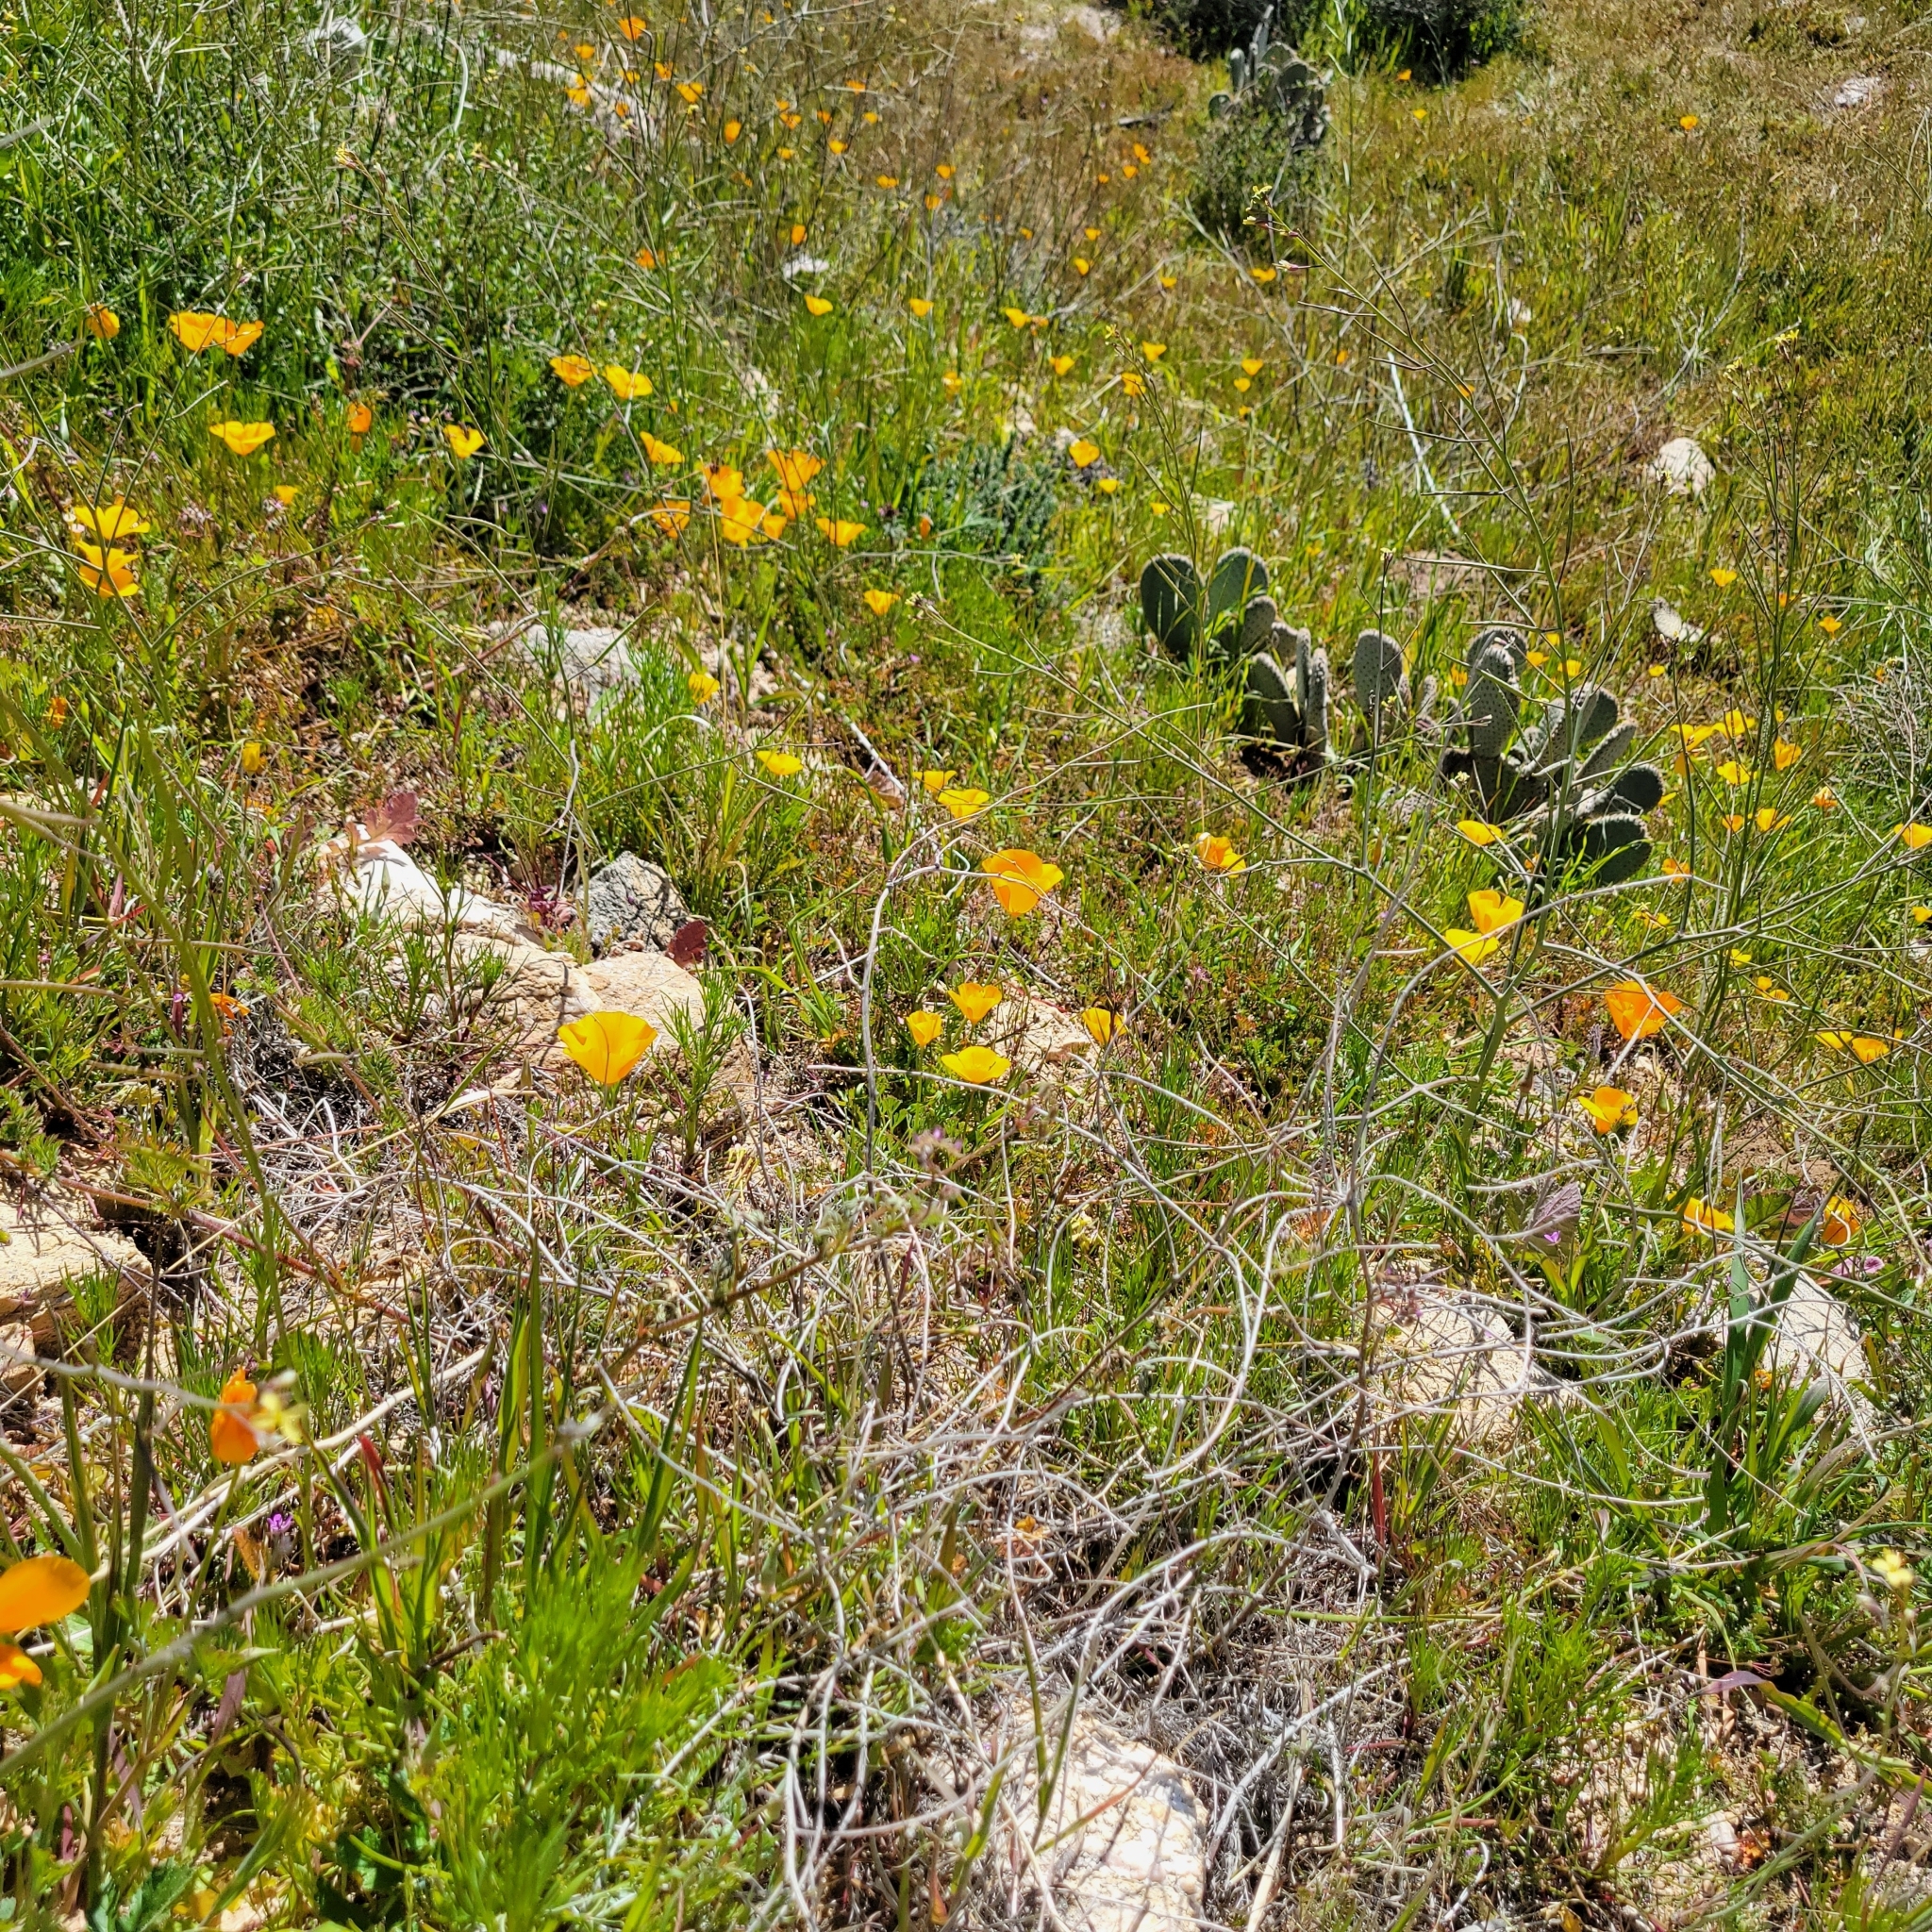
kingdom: Plantae
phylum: Tracheophyta
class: Magnoliopsida
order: Ranunculales
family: Papaveraceae
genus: Eschscholzia
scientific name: Eschscholzia californica
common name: California poppy
